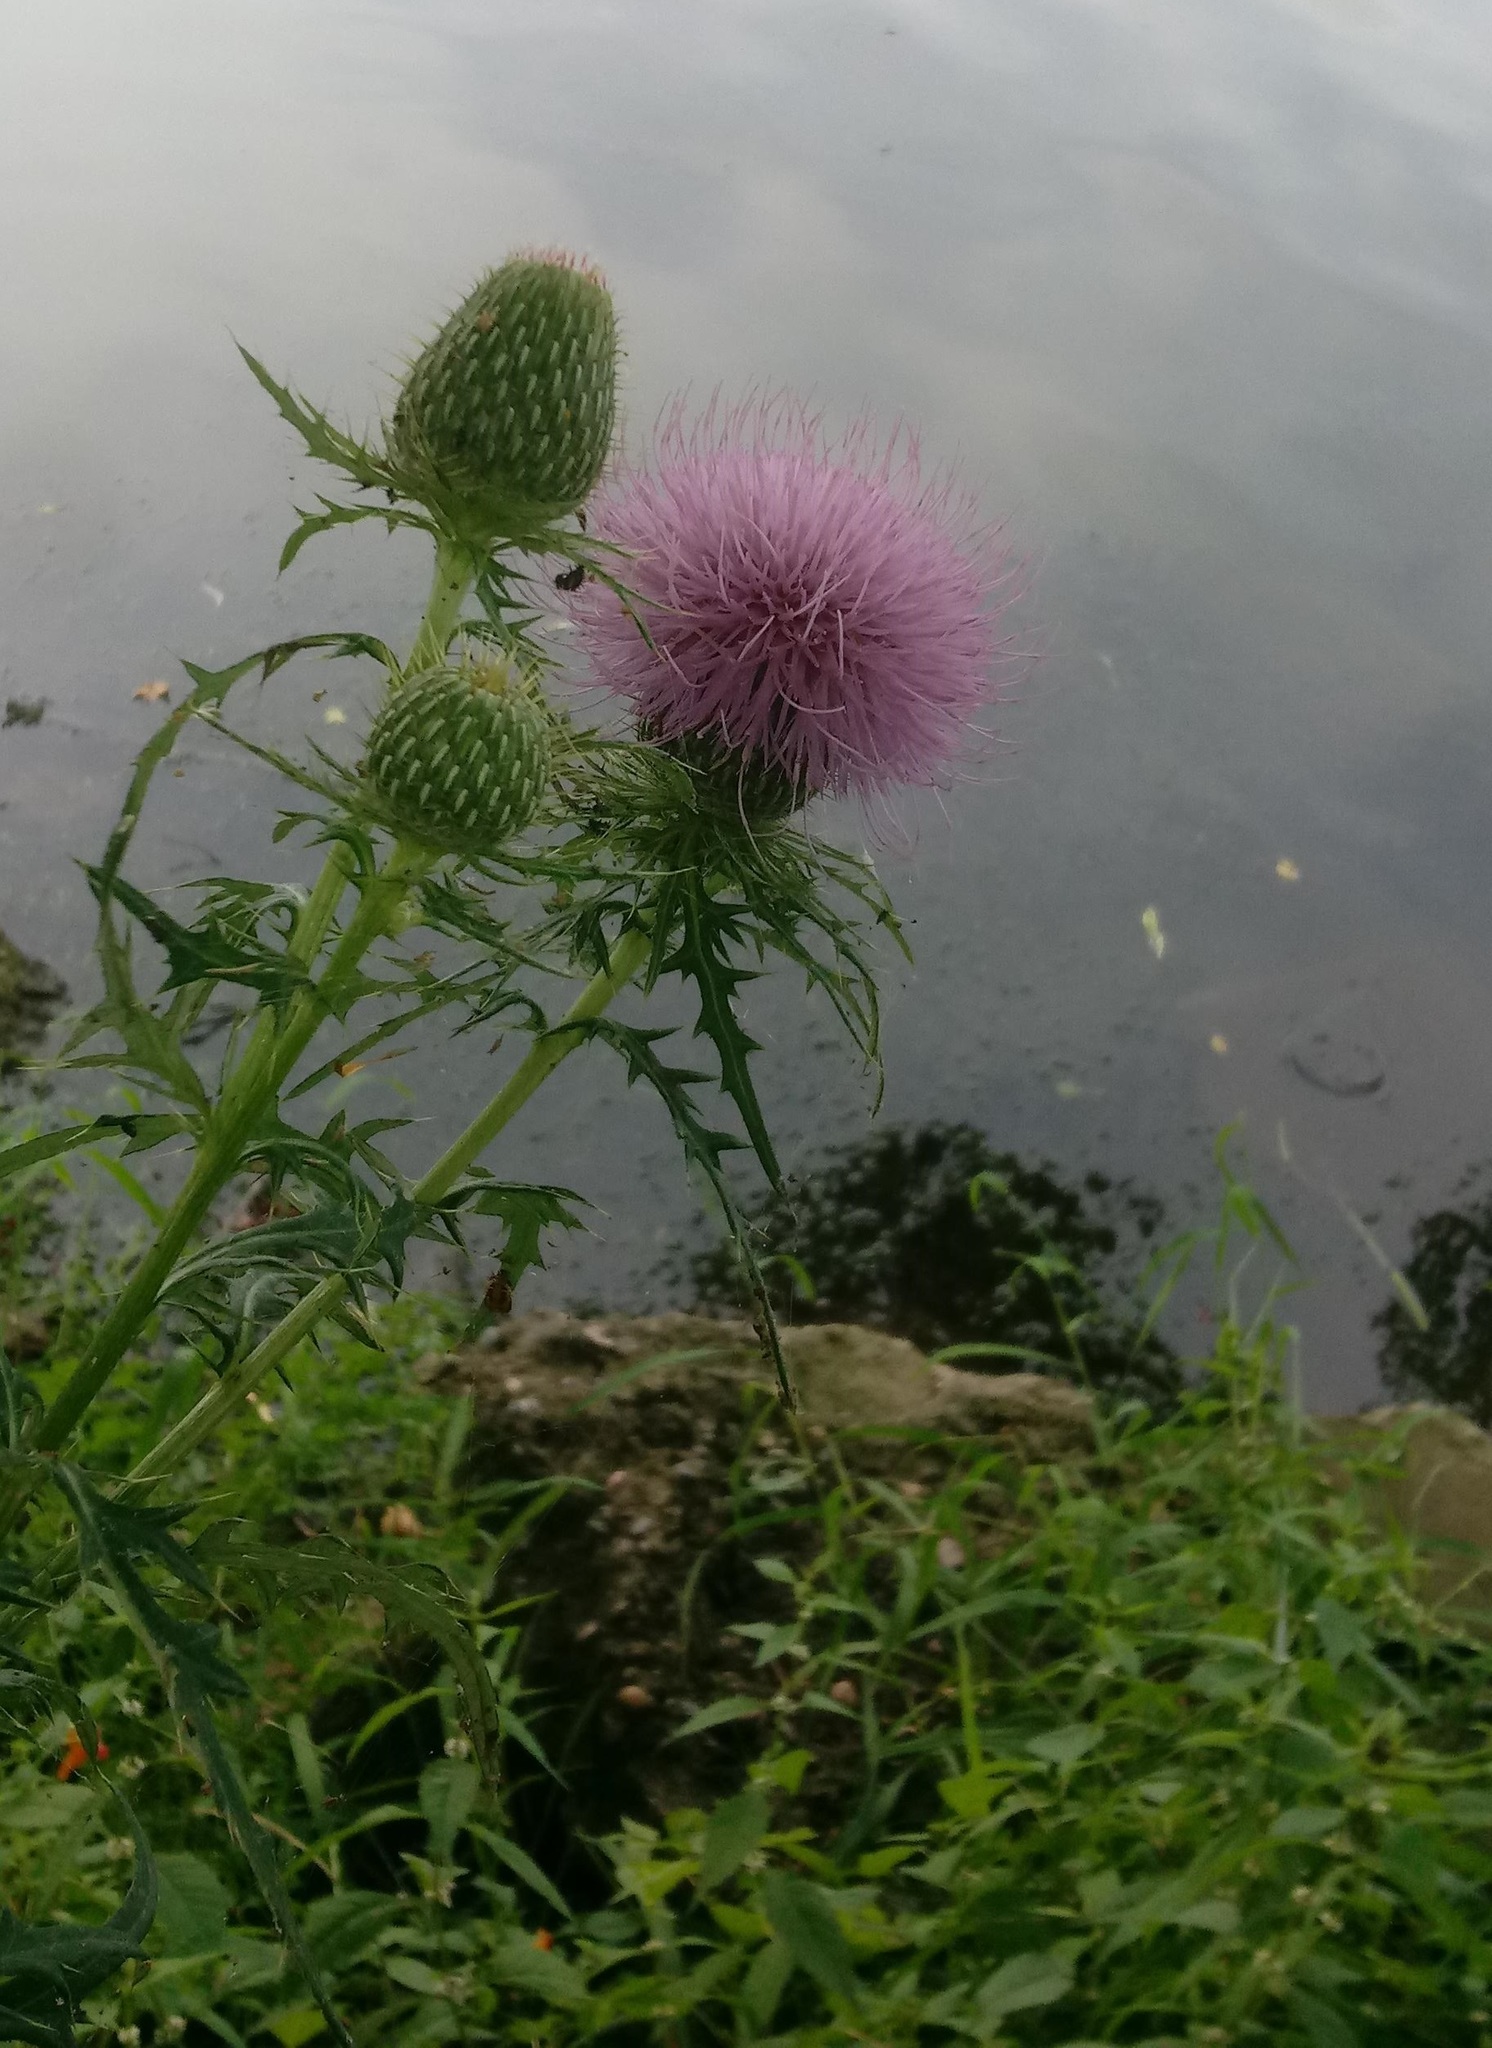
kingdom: Plantae
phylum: Tracheophyta
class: Magnoliopsida
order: Asterales
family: Asteraceae
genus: Cirsium
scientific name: Cirsium discolor
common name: Field thistle
